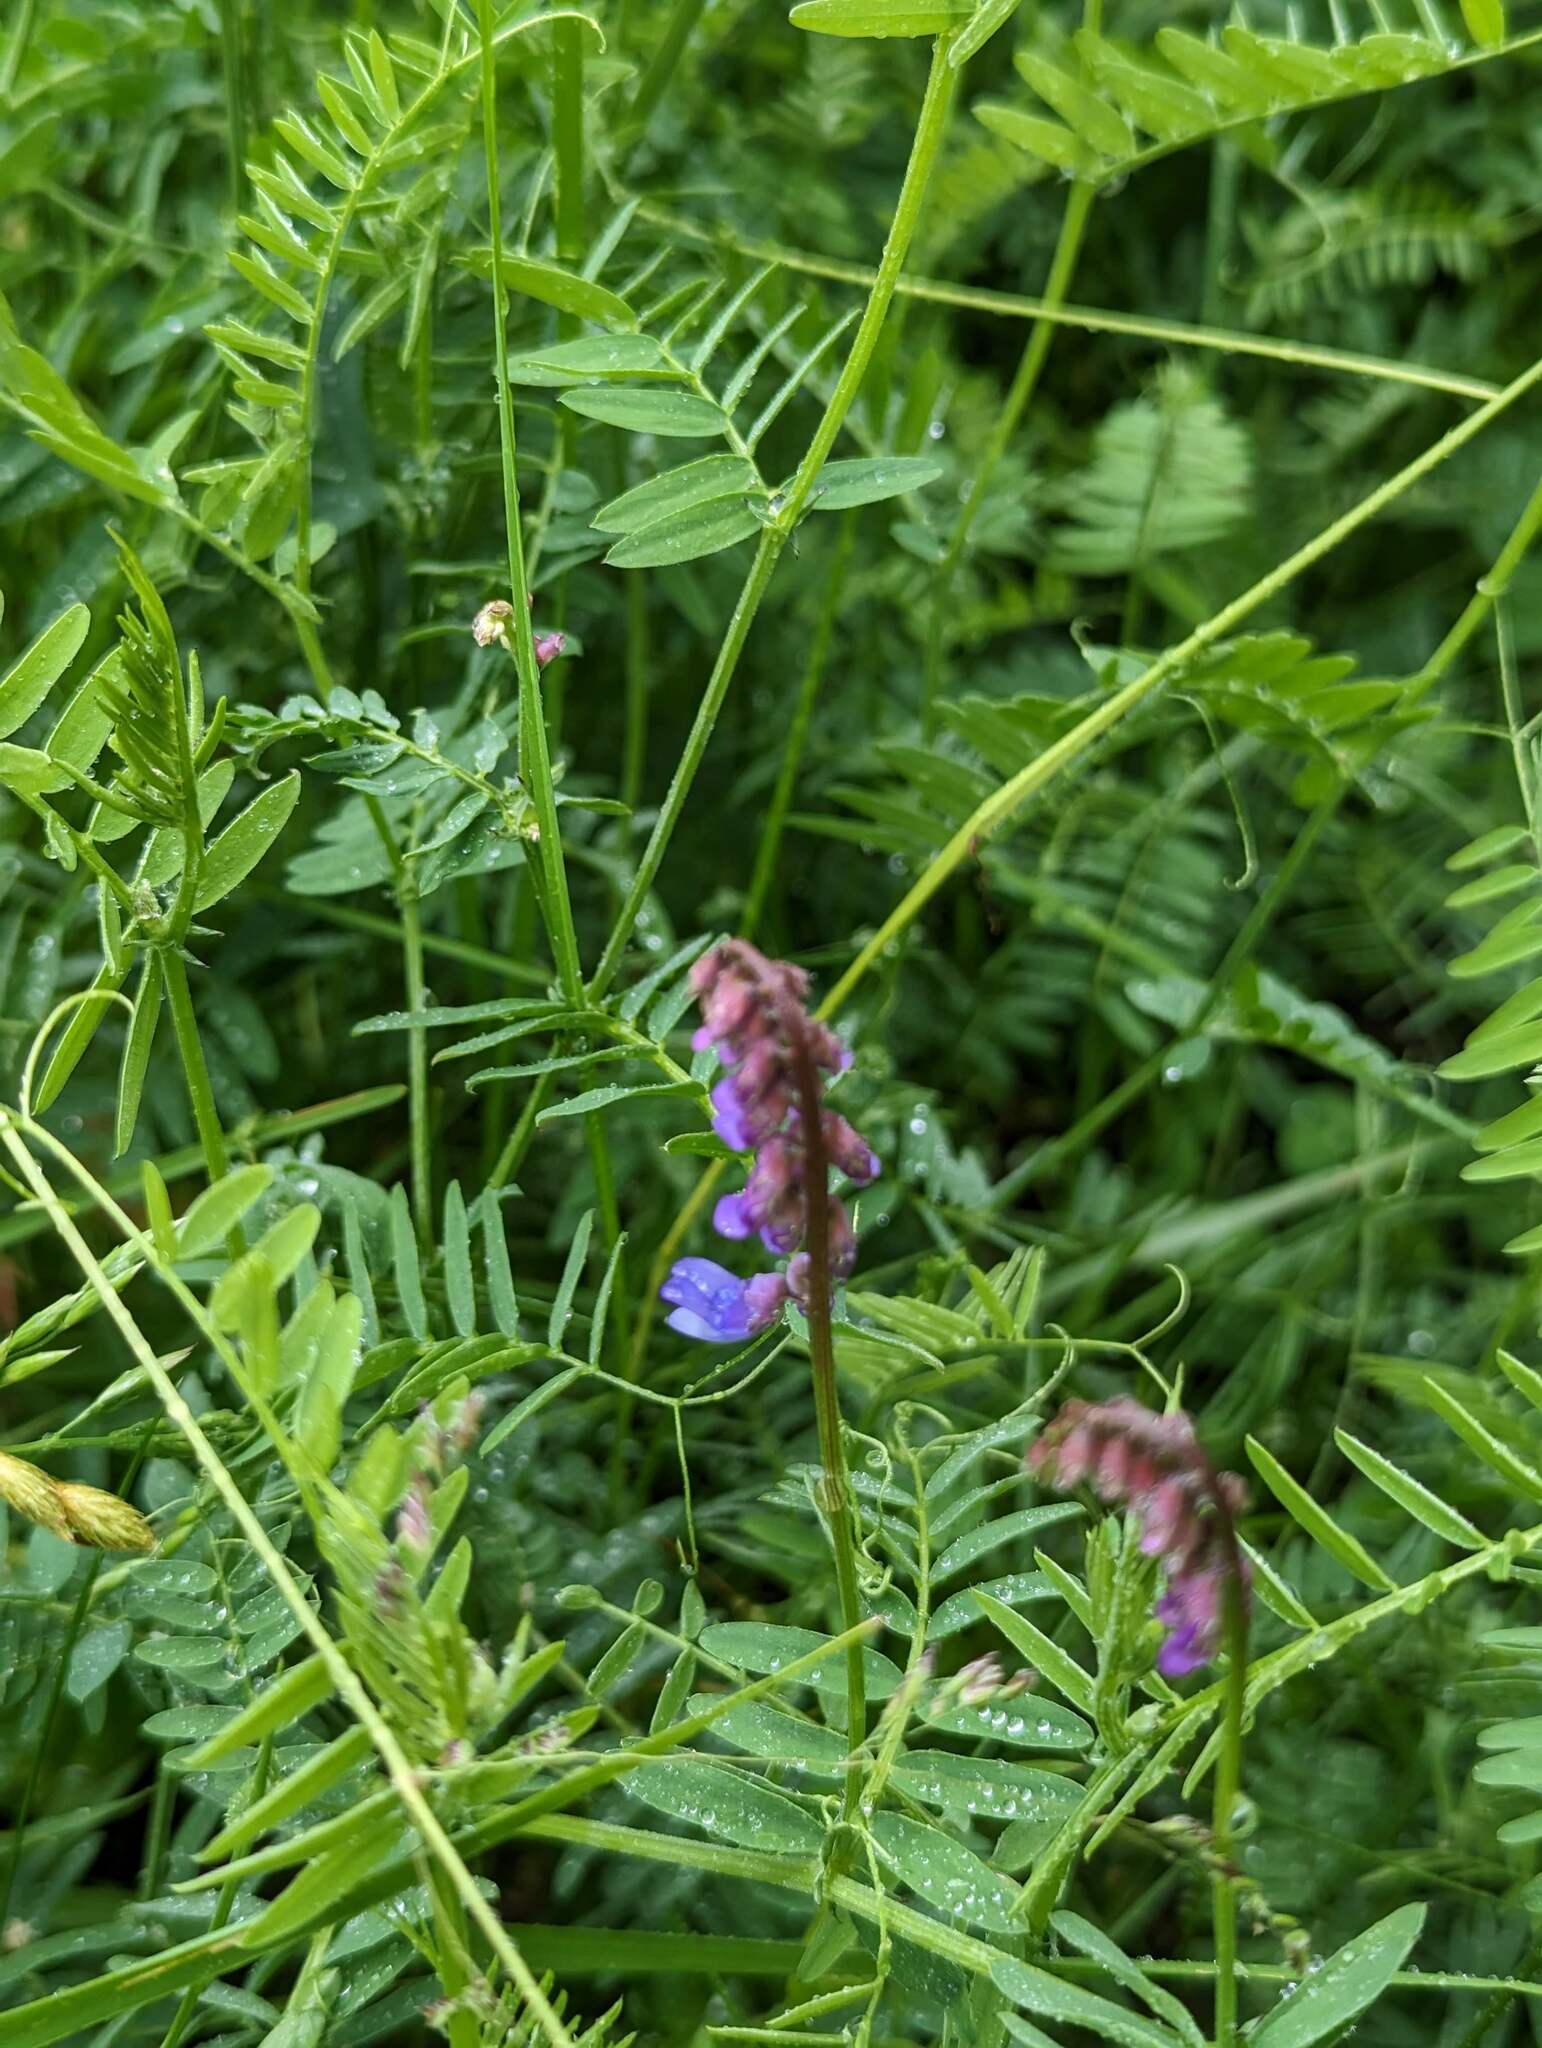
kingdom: Plantae
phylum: Tracheophyta
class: Magnoliopsida
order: Fabales
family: Fabaceae
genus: Vicia
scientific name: Vicia cracca
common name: Bird vetch
